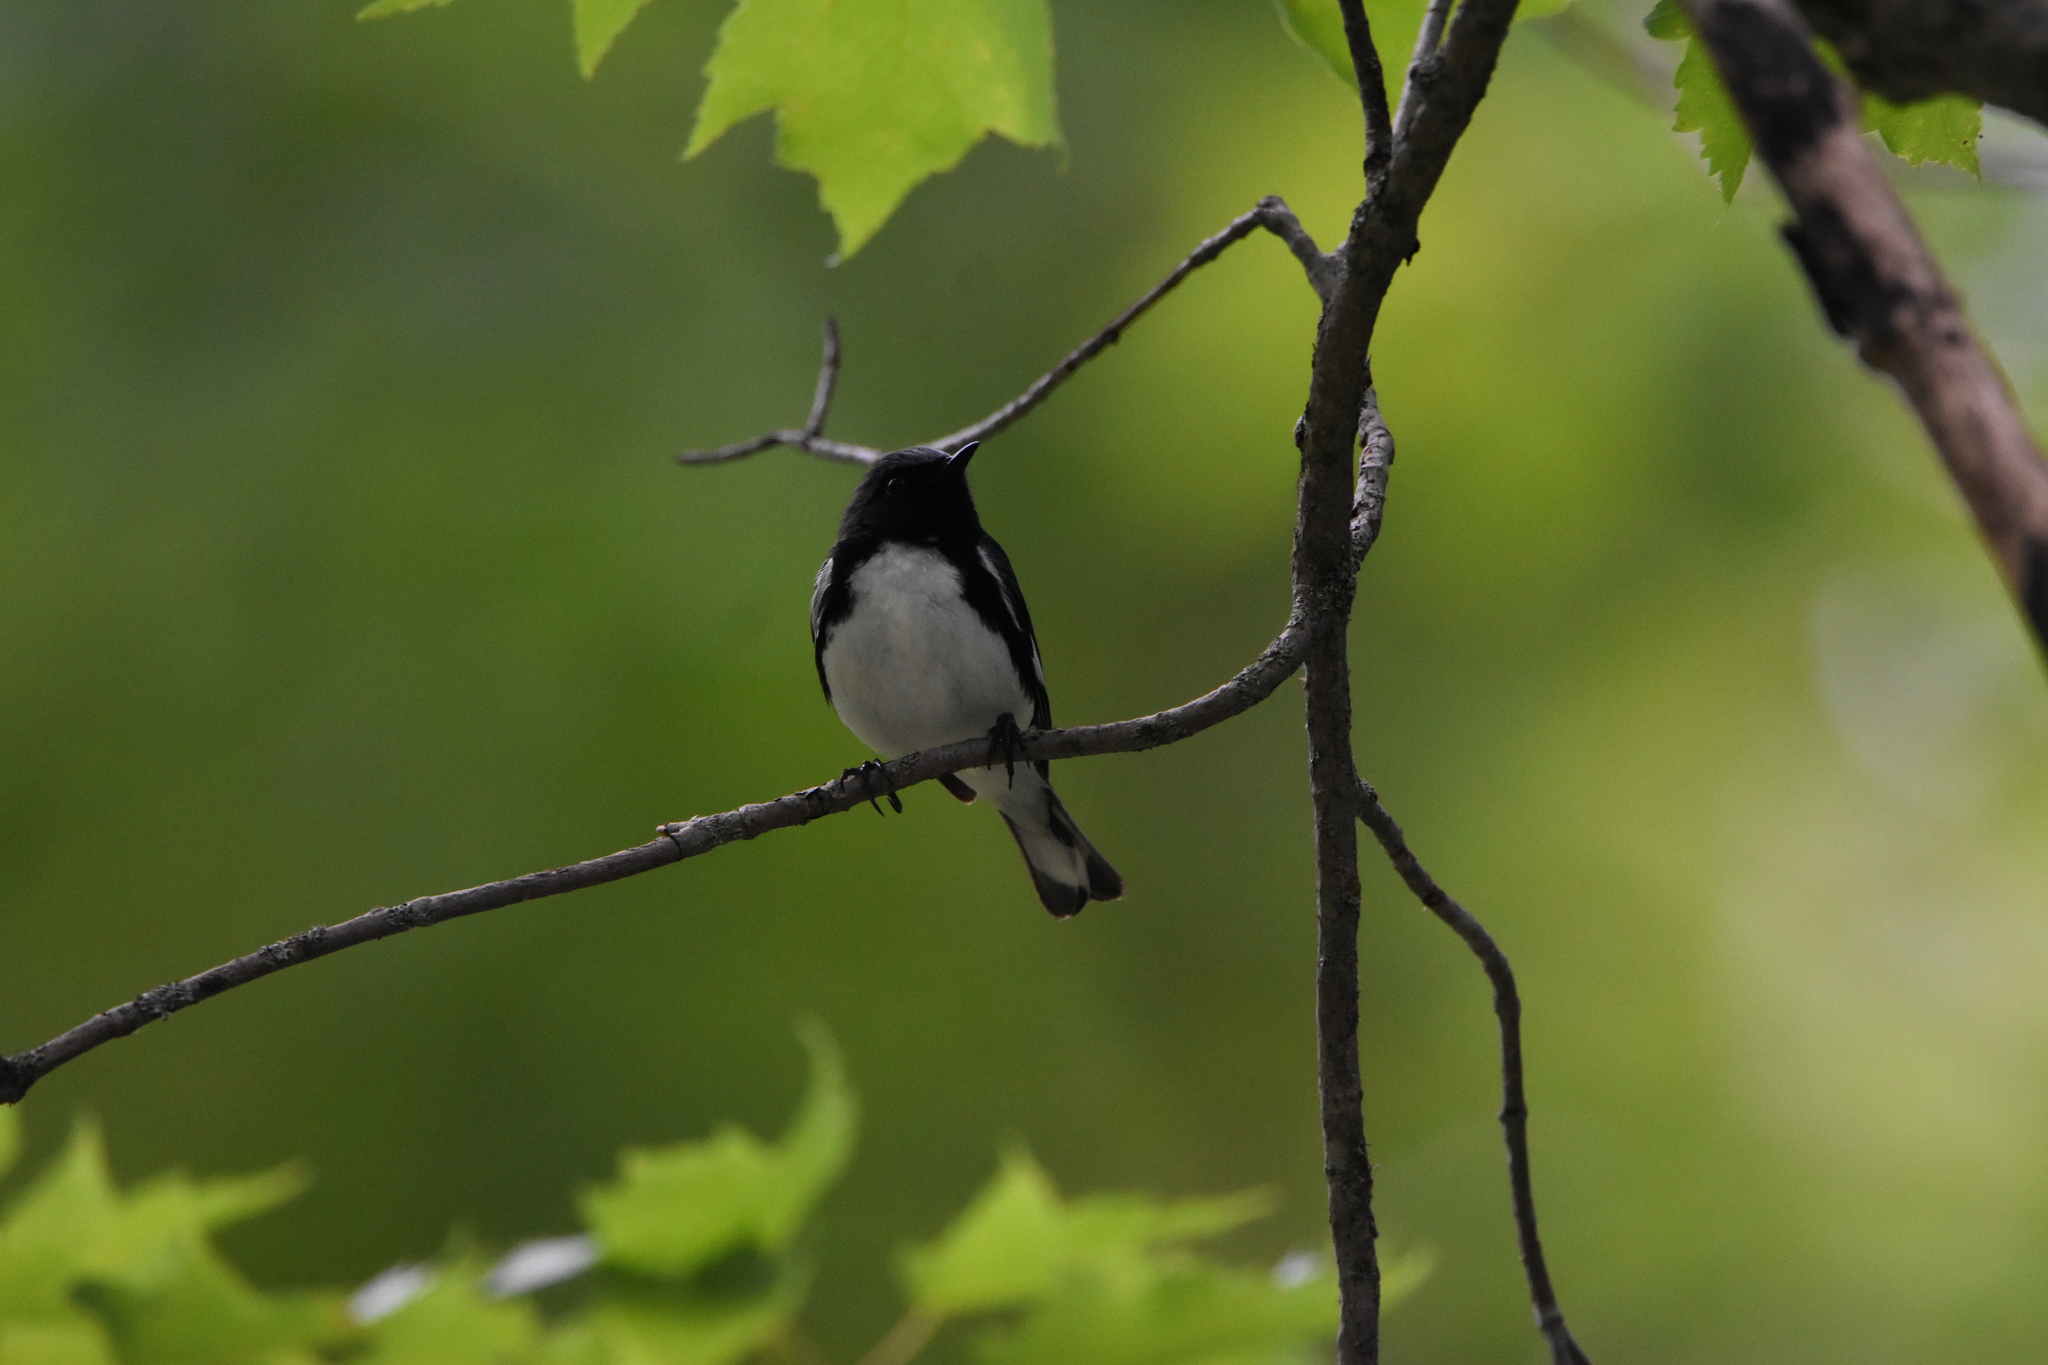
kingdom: Animalia
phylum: Chordata
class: Aves
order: Passeriformes
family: Parulidae
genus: Setophaga
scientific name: Setophaga caerulescens
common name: Black-throated blue warbler
